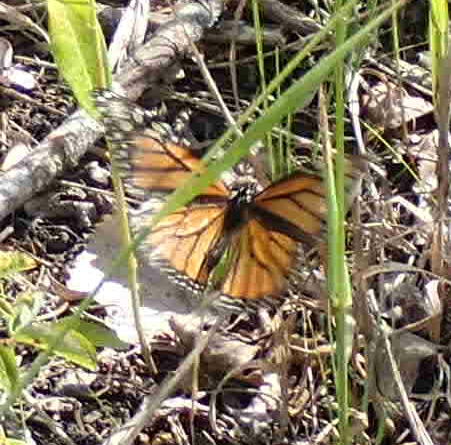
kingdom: Animalia
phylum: Arthropoda
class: Insecta
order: Lepidoptera
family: Nymphalidae
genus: Danaus
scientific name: Danaus plexippus
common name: Monarch
